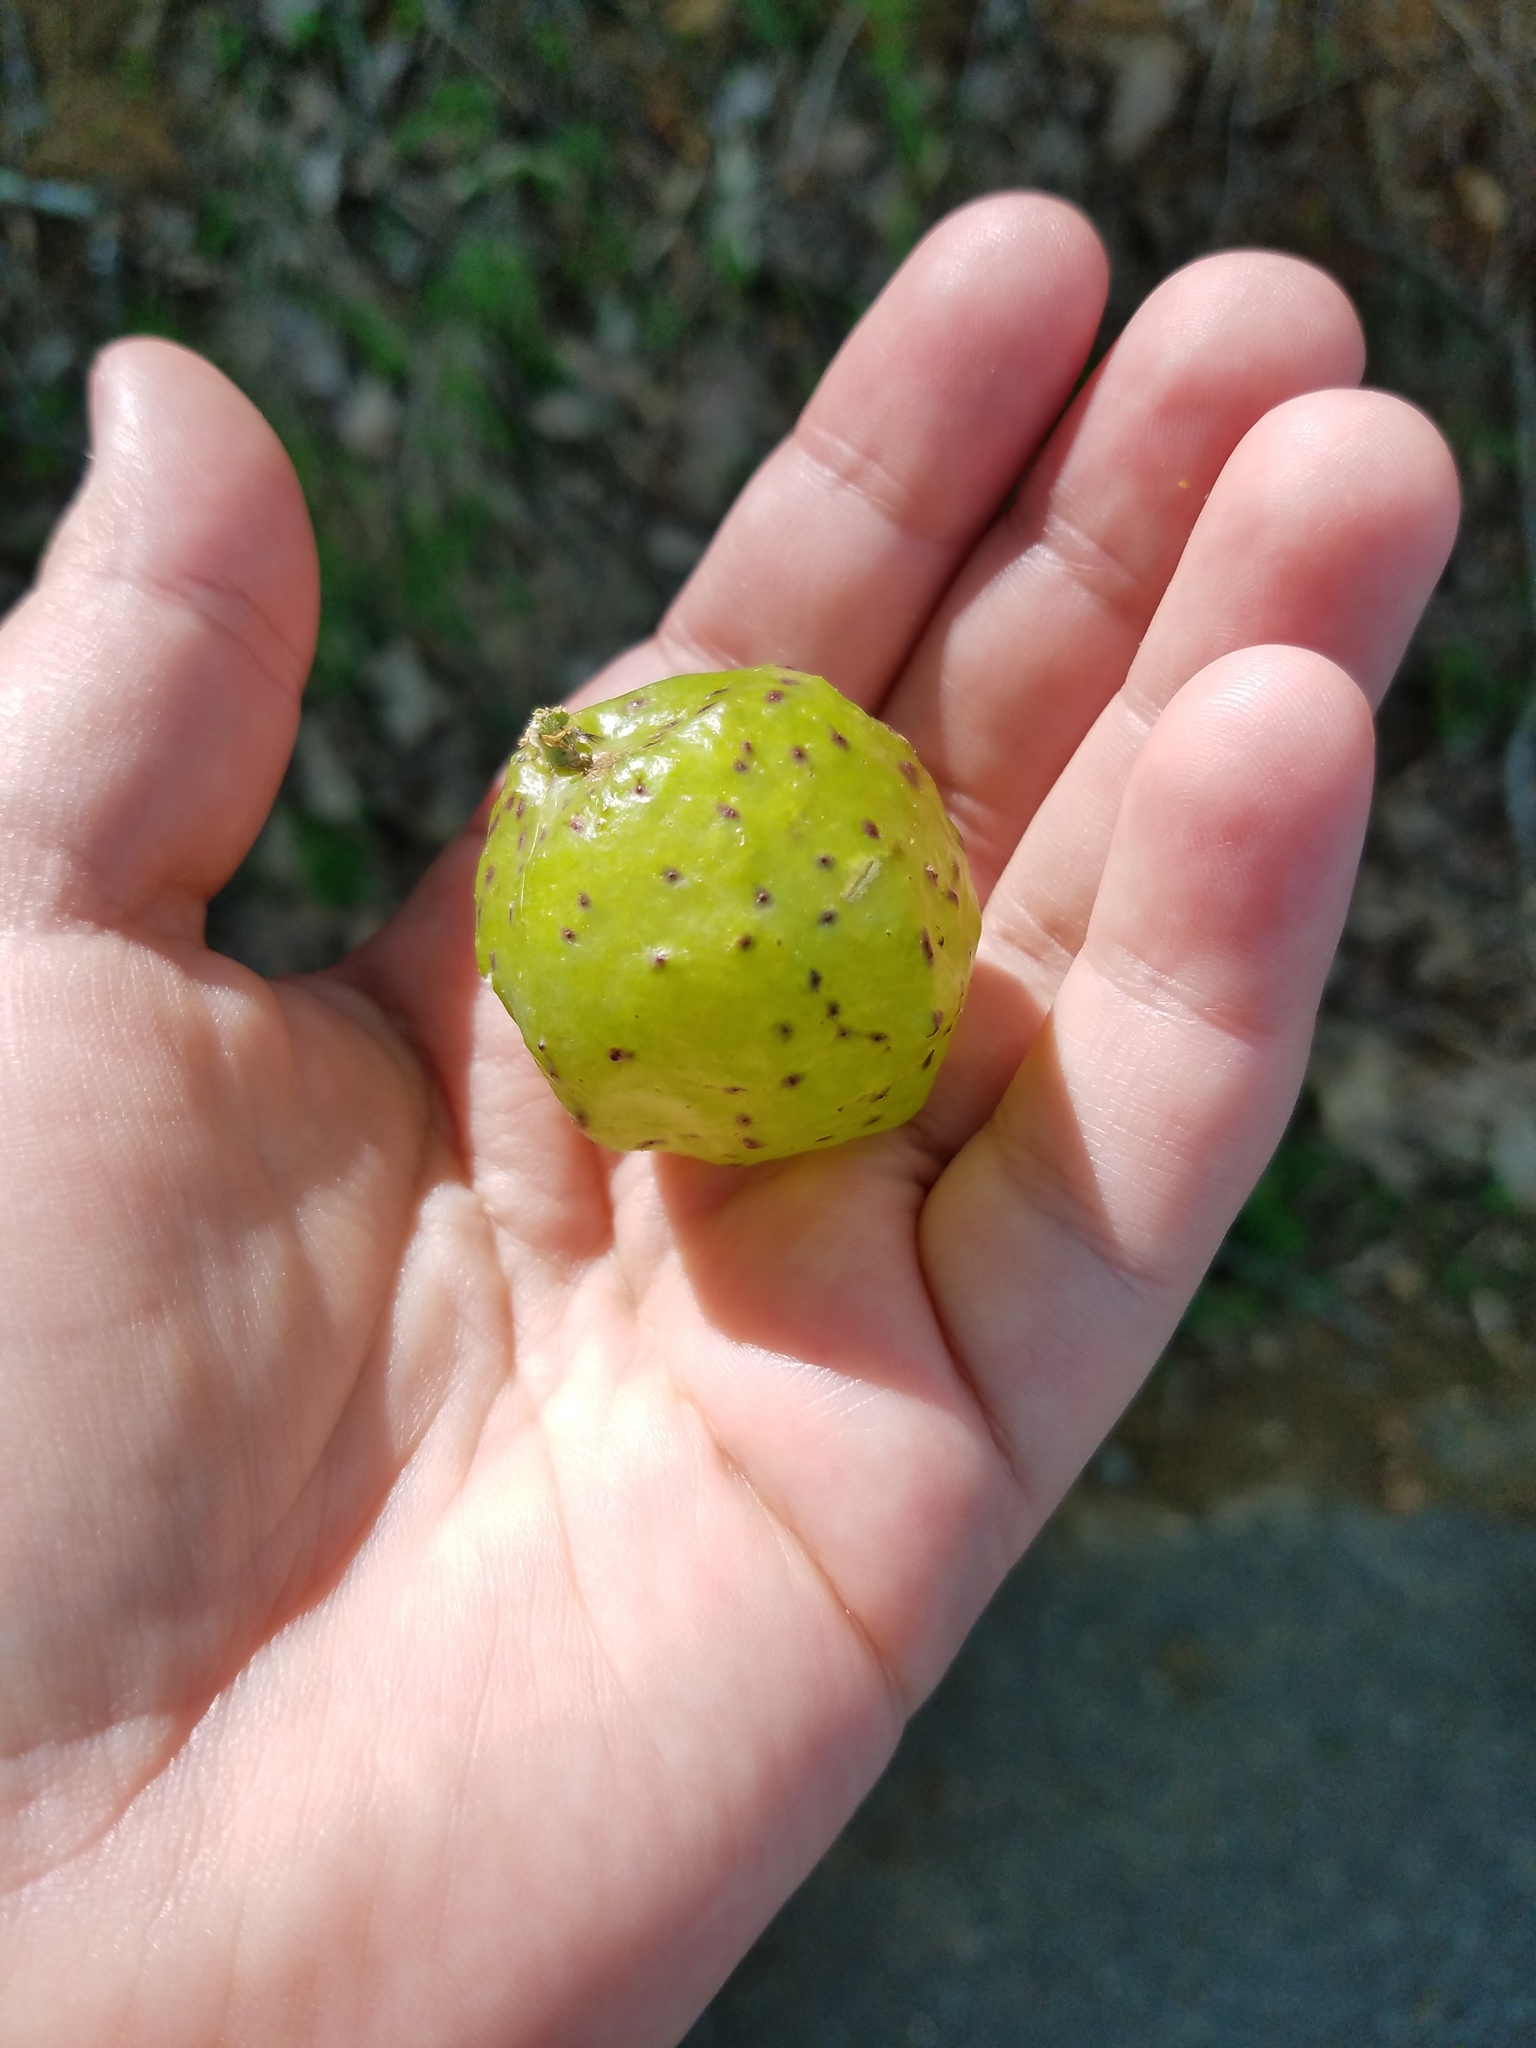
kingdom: Animalia
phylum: Arthropoda
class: Insecta
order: Hymenoptera
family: Cynipidae
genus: Amphibolips
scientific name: Amphibolips
